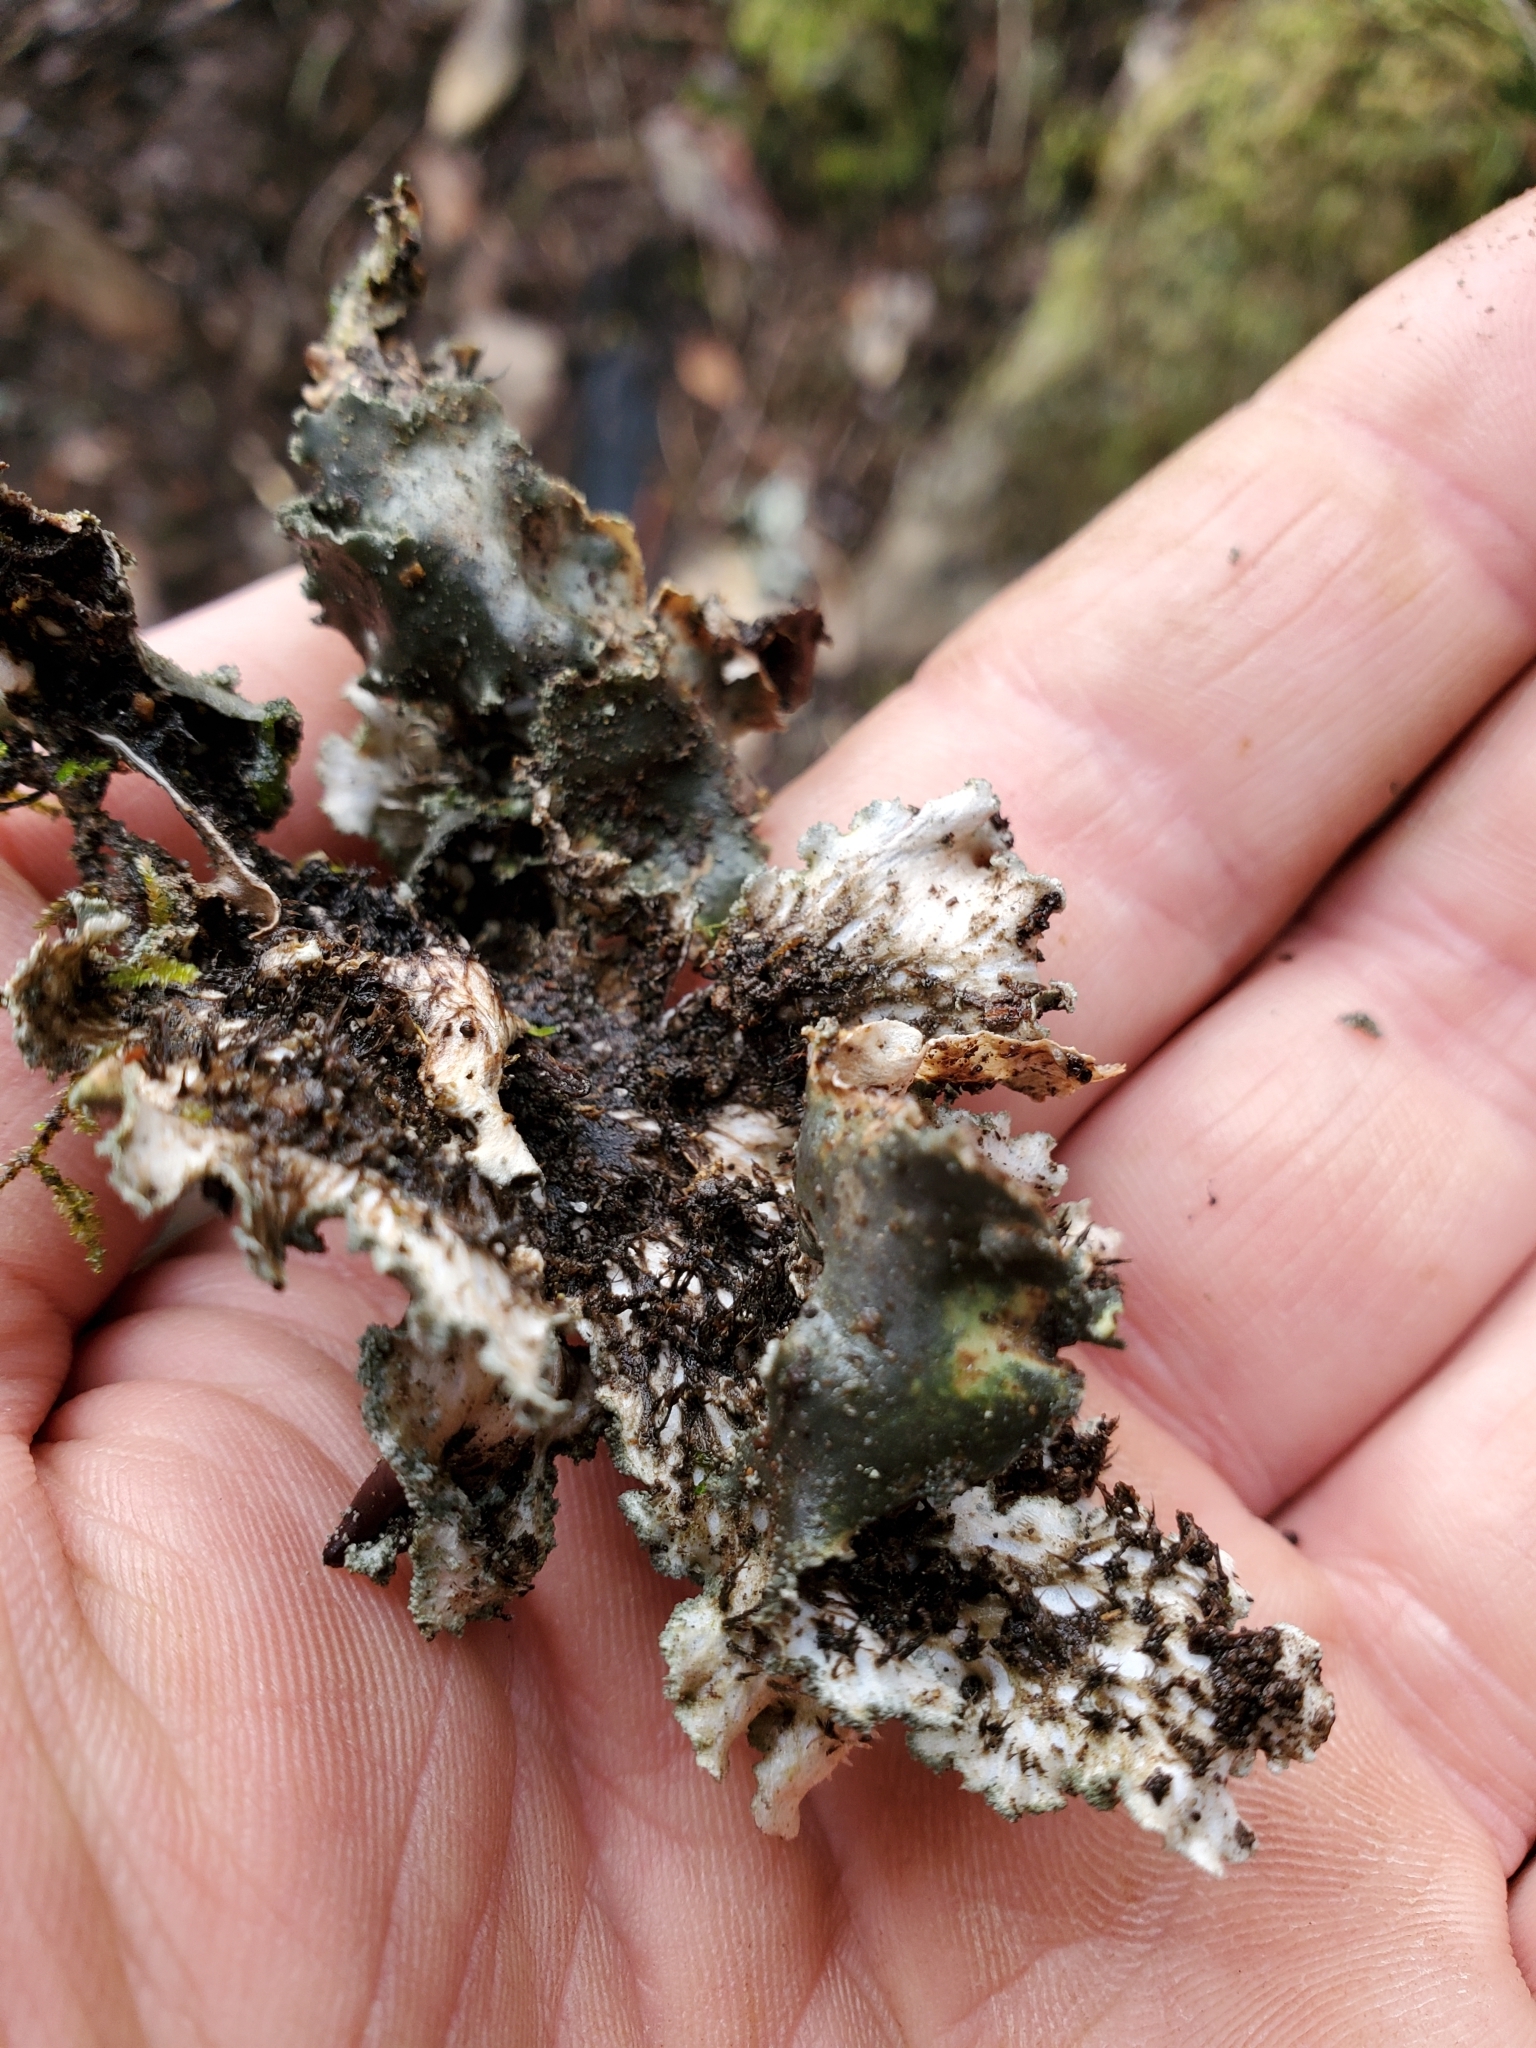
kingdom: Fungi
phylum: Ascomycota
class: Lecanoromycetes
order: Peltigerales
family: Peltigeraceae
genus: Peltigera
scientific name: Peltigera collina
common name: Gritty tree pelt lichen
